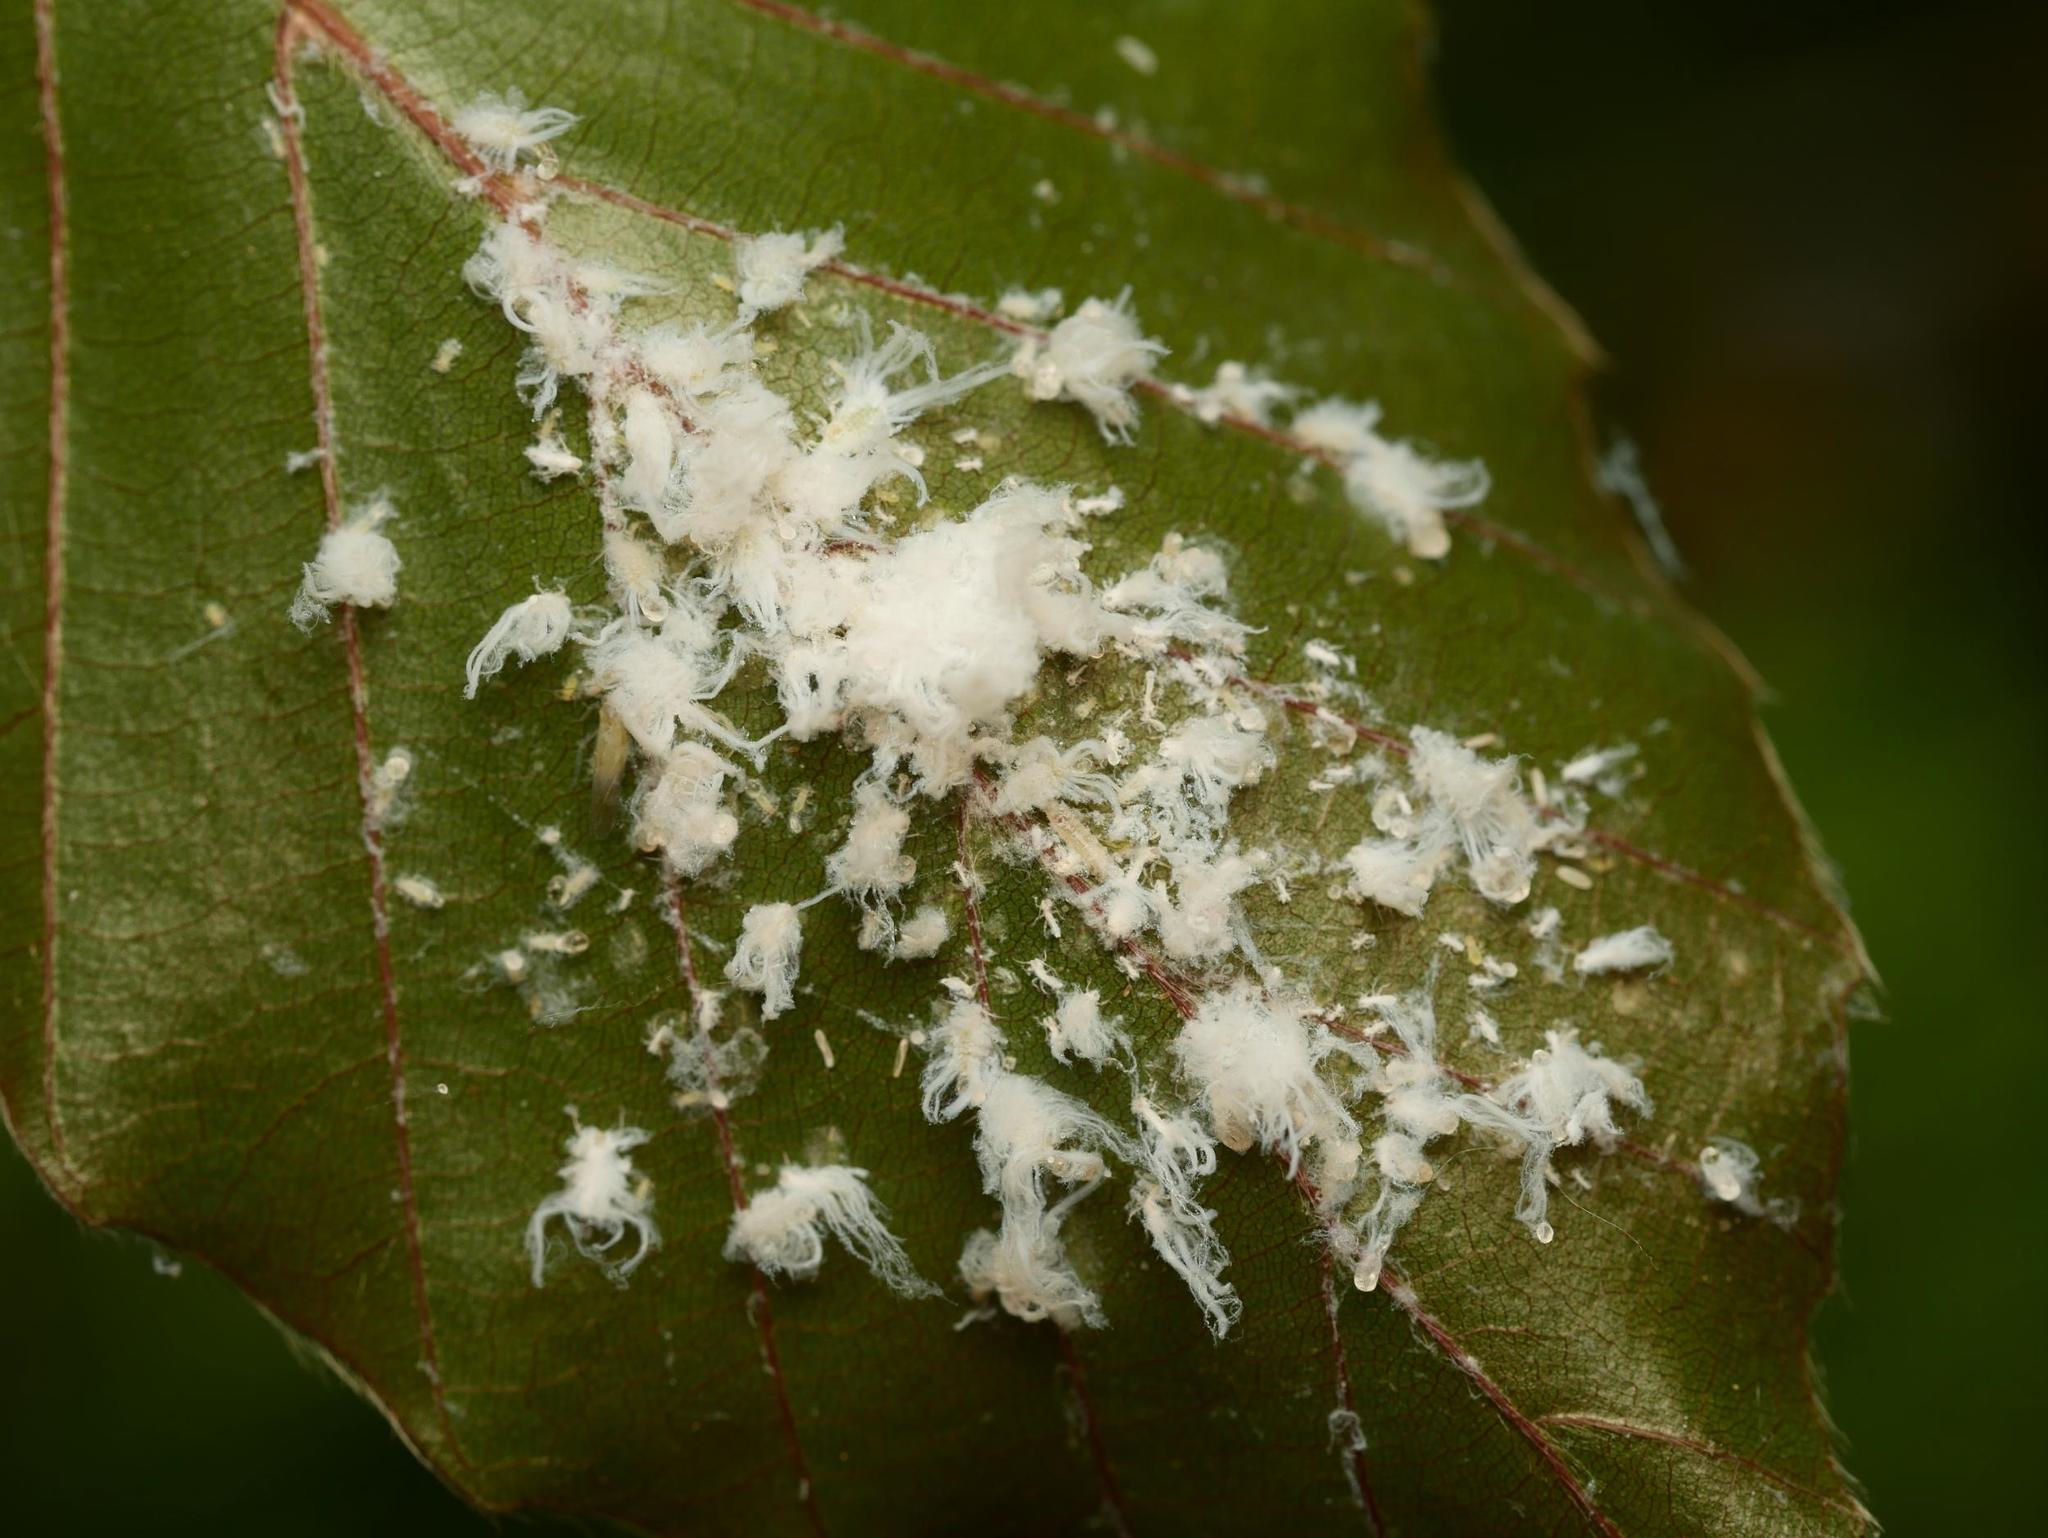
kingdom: Plantae
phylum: Tracheophyta
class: Magnoliopsida
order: Fagales
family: Fagaceae
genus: Fagus
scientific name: Fagus sylvatica
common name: Beech
